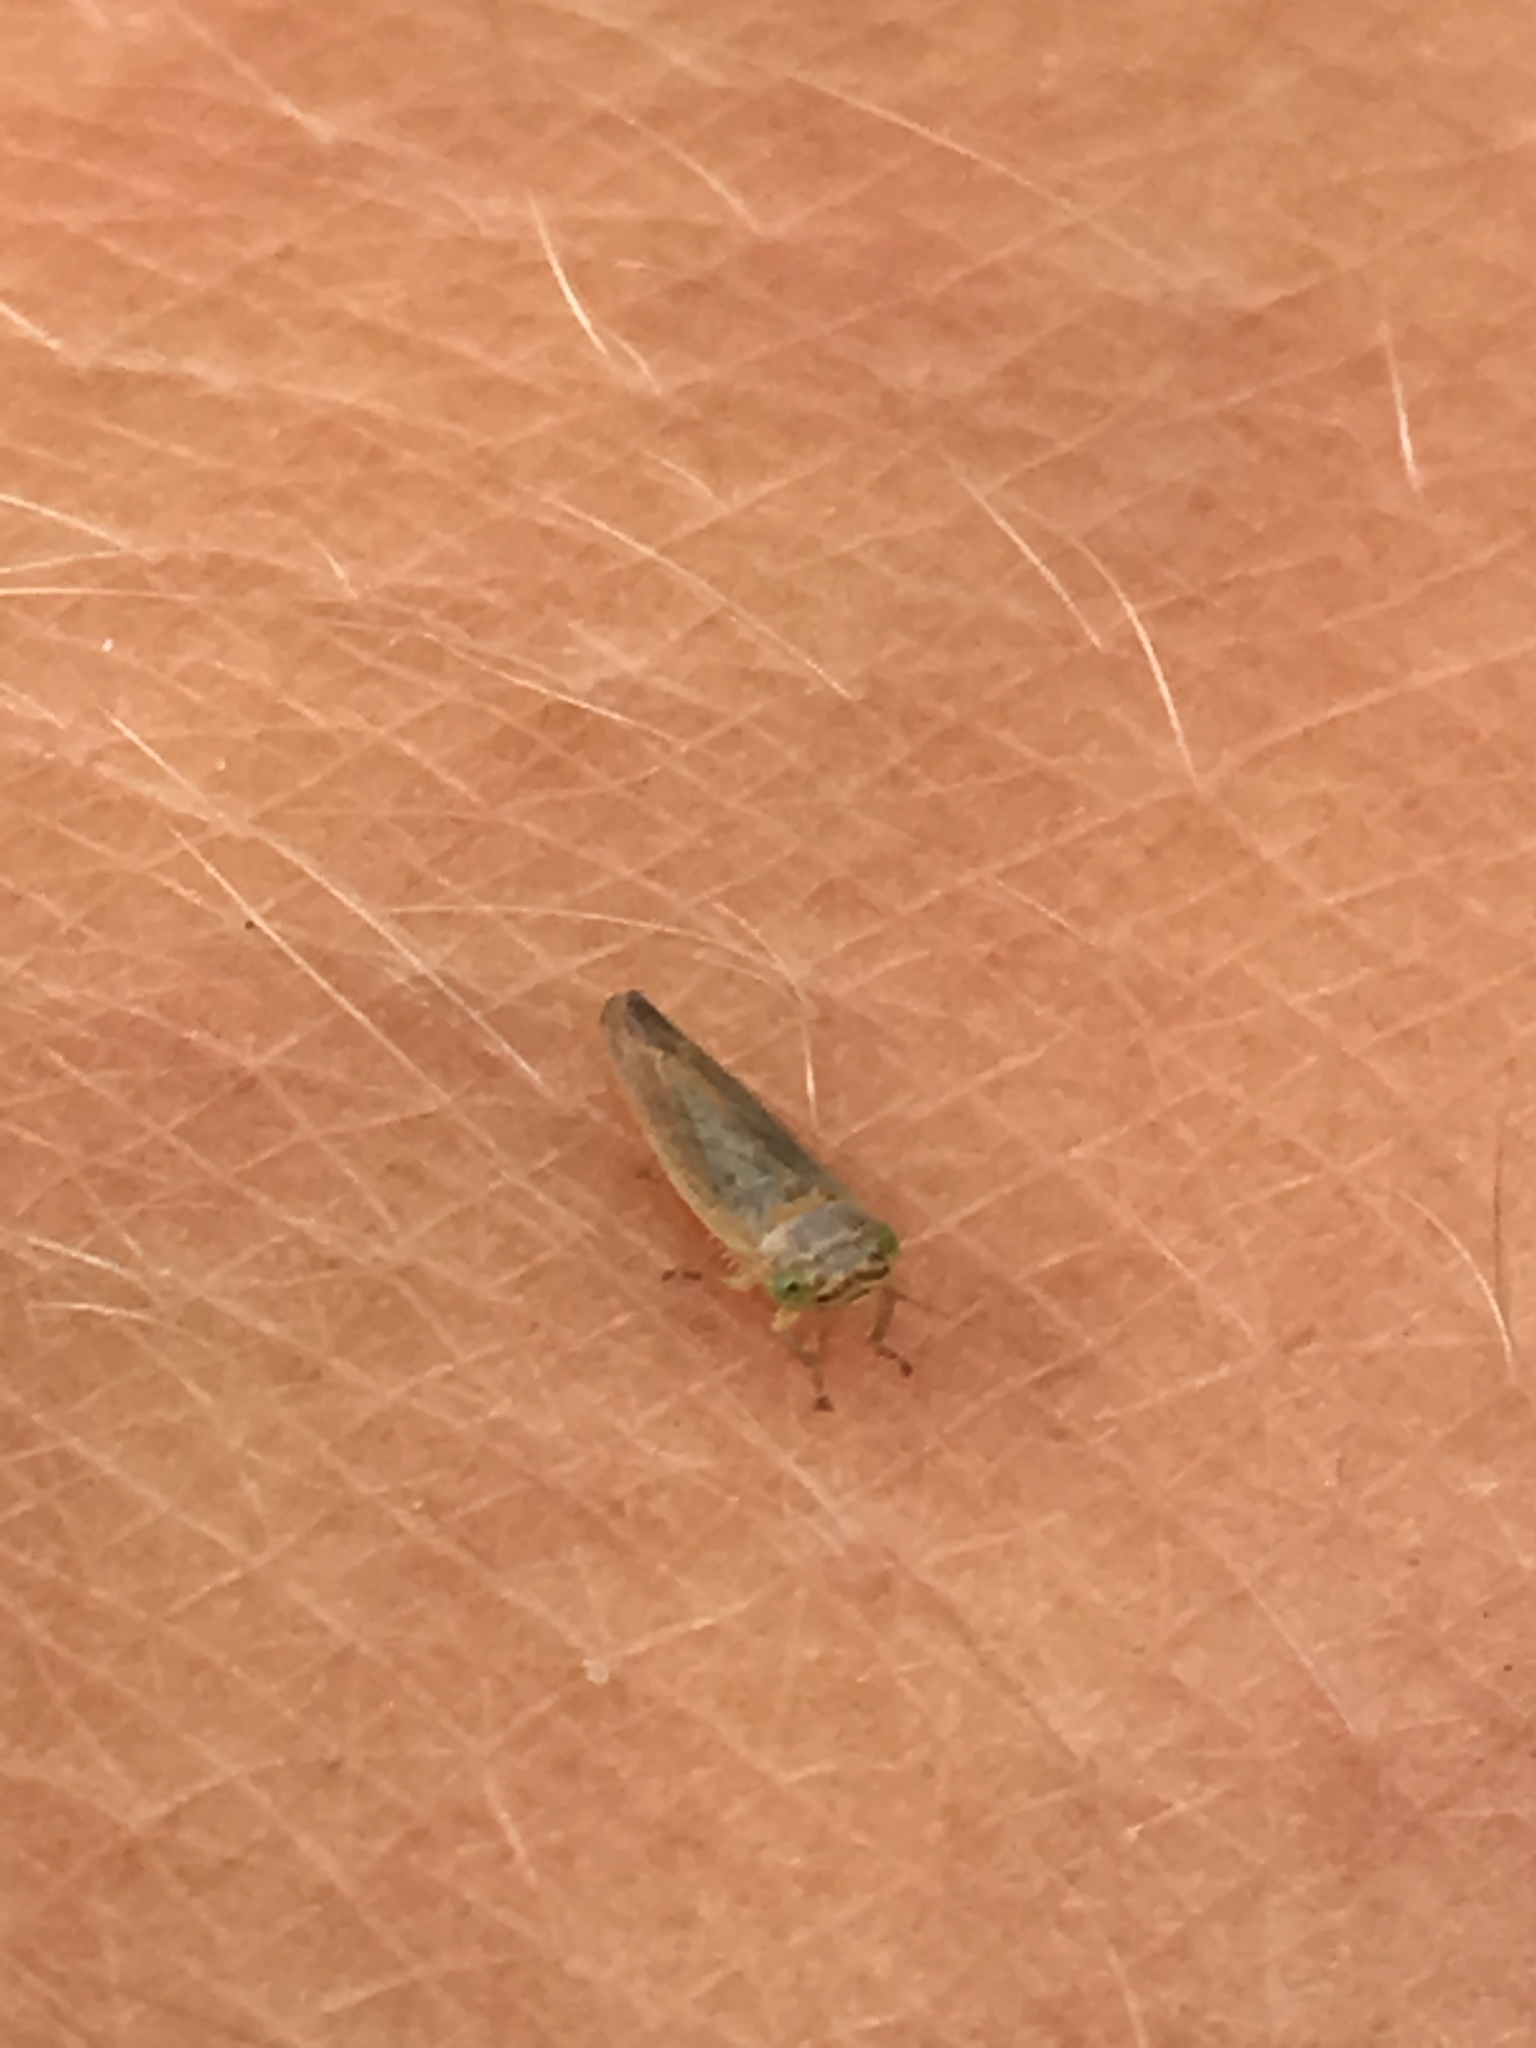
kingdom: Animalia
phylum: Arthropoda
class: Insecta
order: Hemiptera
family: Cicadellidae
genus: Grypotes
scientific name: Grypotes puncticollis
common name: Leafhopper
